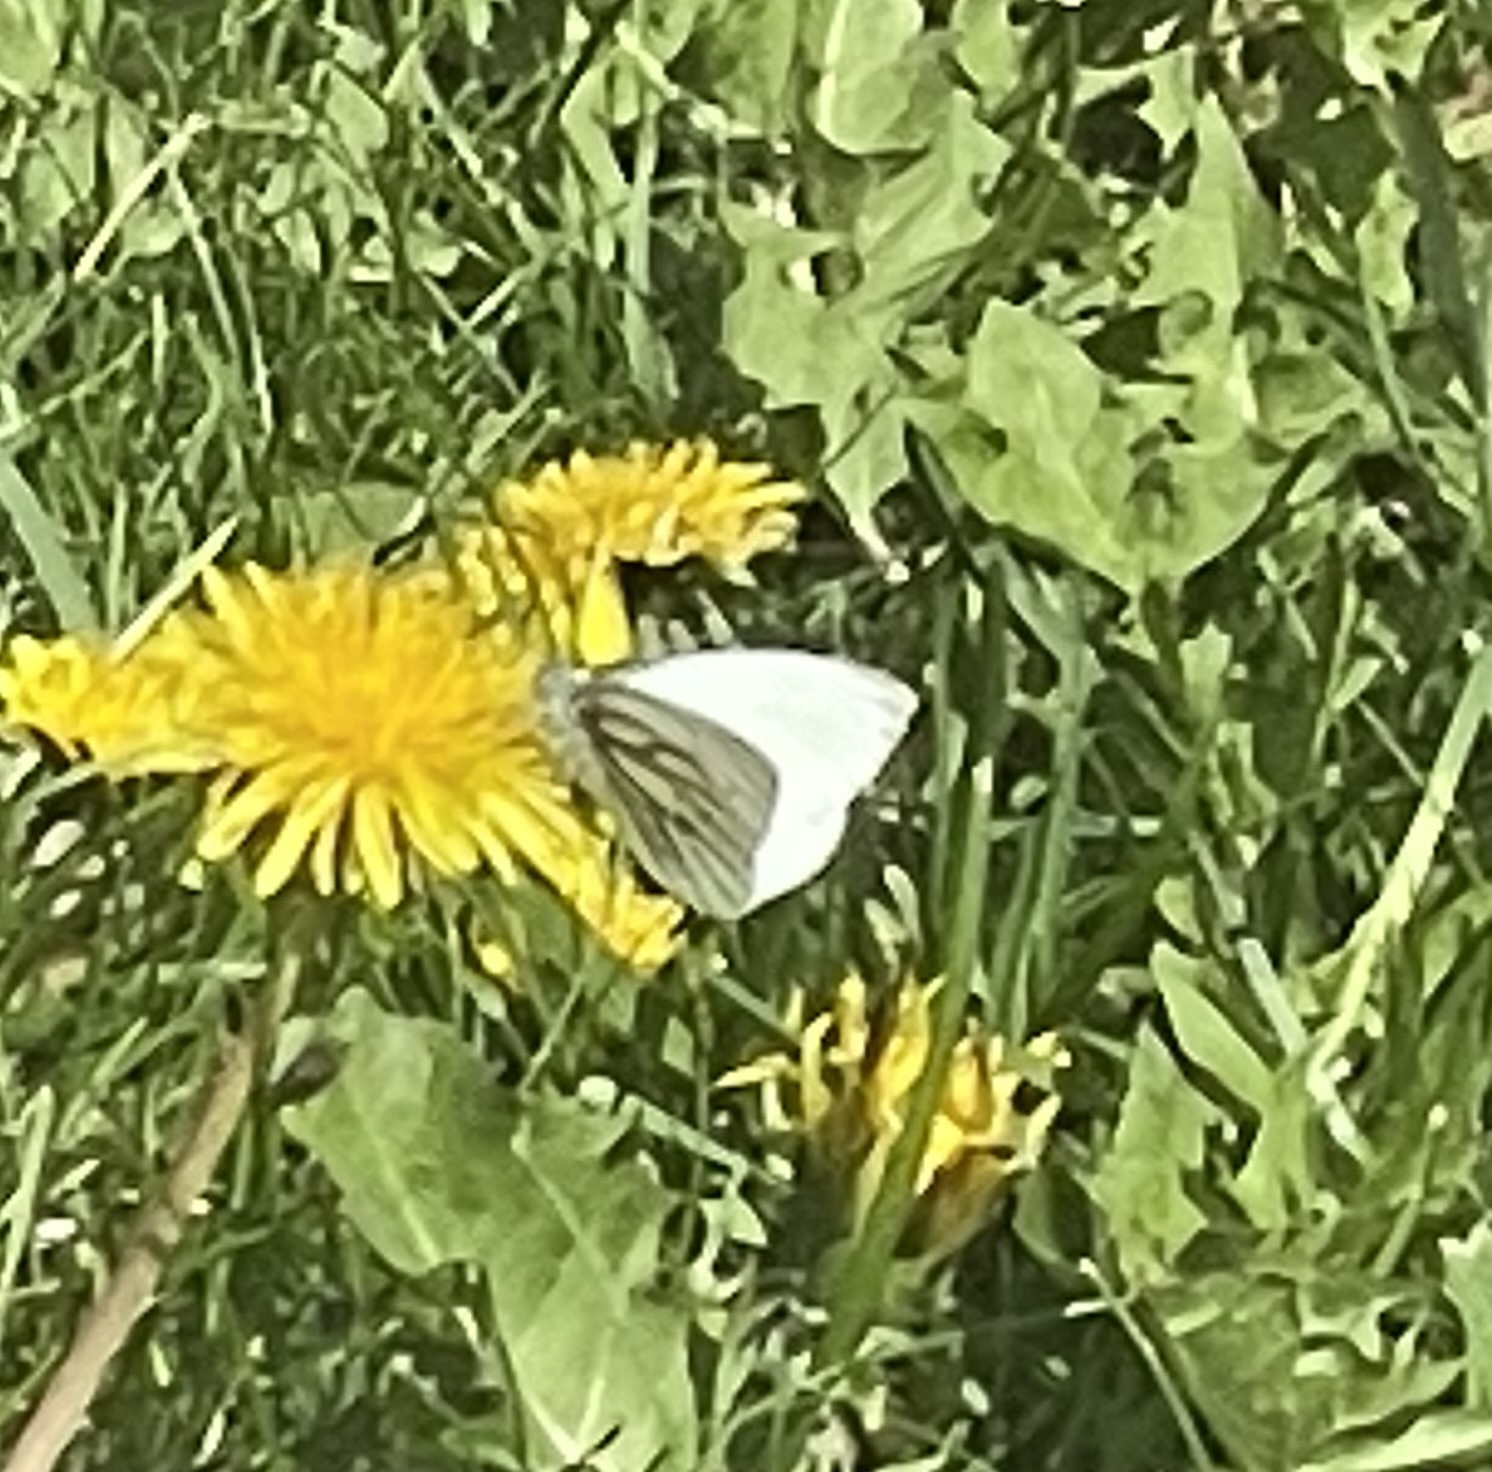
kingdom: Animalia
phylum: Arthropoda
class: Insecta
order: Lepidoptera
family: Pieridae
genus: Pieris
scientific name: Pieris napi
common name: Green-veined white
